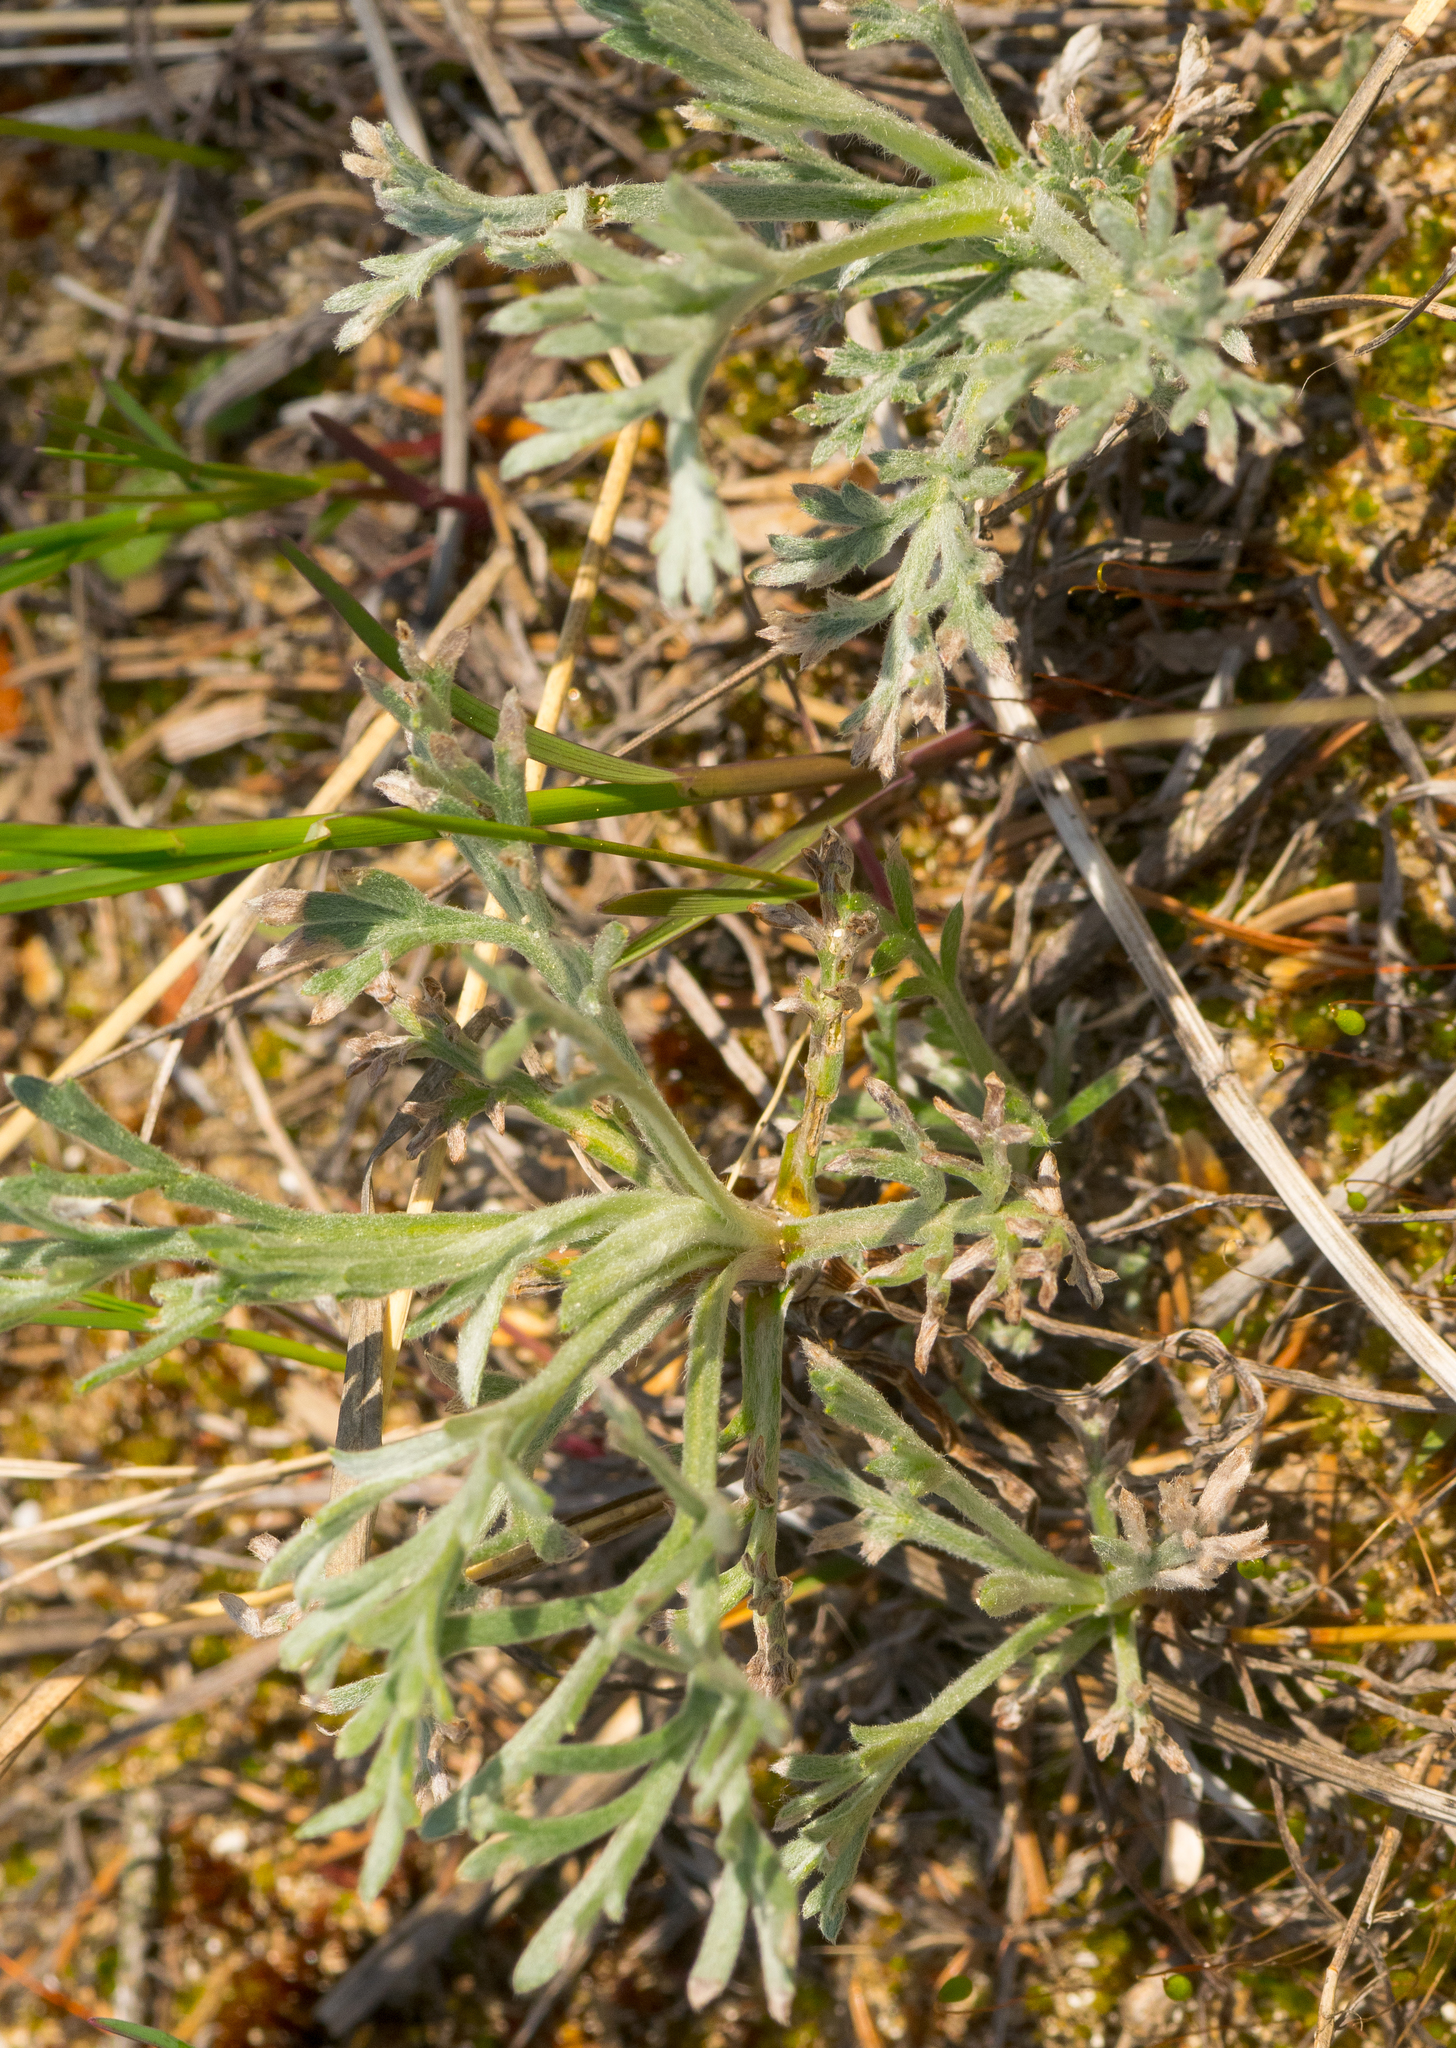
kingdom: Plantae
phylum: Tracheophyta
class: Magnoliopsida
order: Asterales
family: Asteraceae
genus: Artemisia
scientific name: Artemisia campestris
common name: Field wormwood
